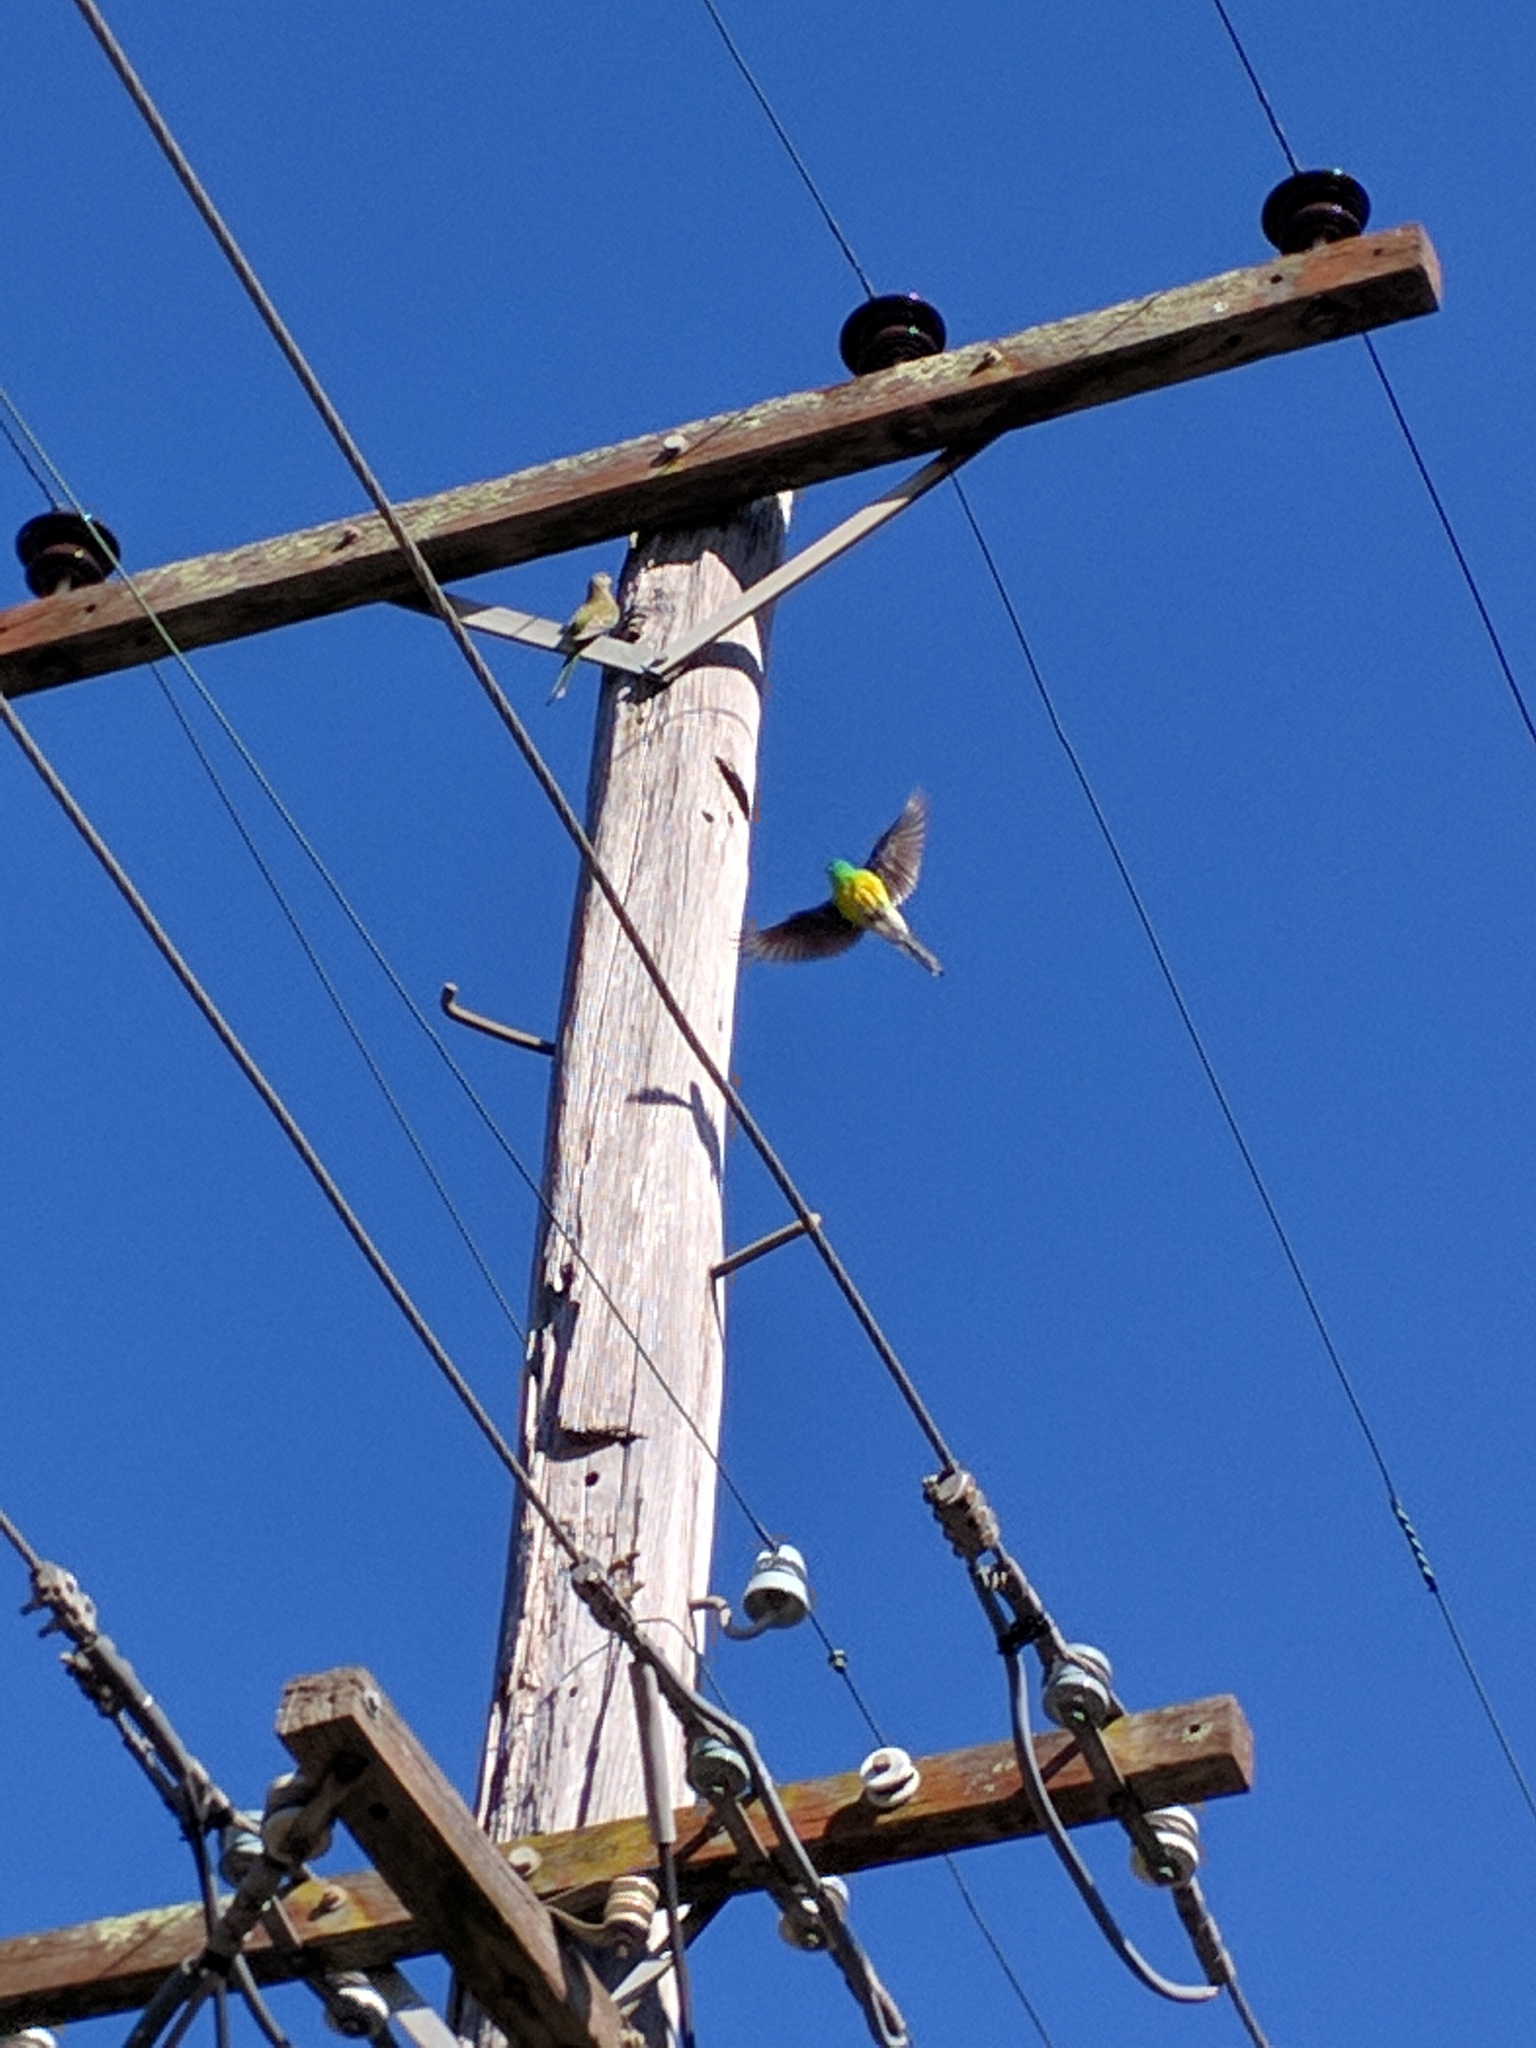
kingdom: Animalia
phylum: Chordata
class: Aves
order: Psittaciformes
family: Psittacidae
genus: Psephotus
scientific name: Psephotus haematonotus
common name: Red-rumped parrot
